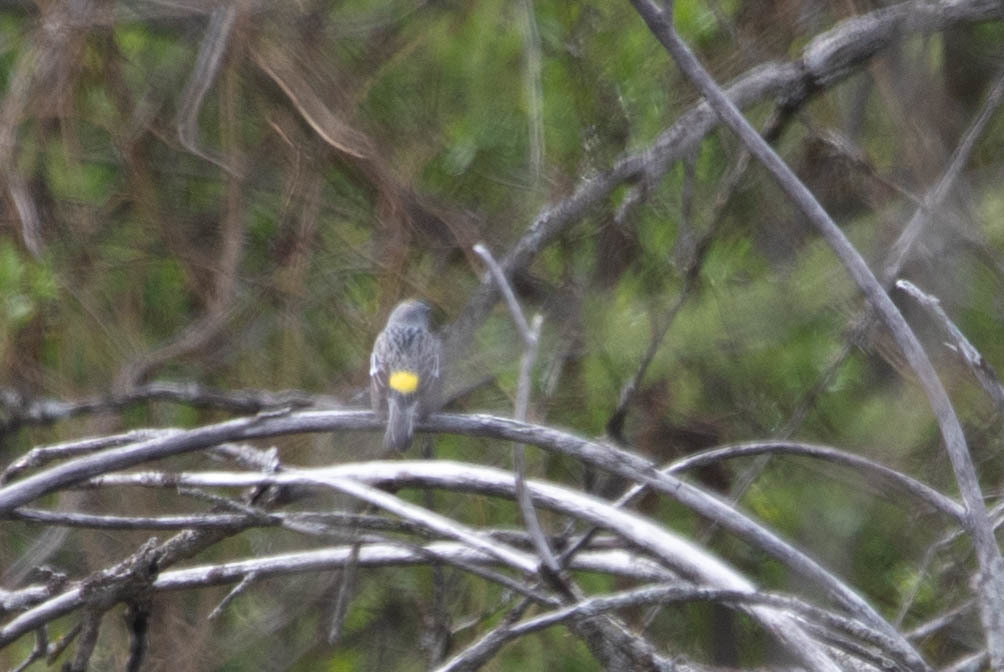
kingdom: Animalia
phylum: Chordata
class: Aves
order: Passeriformes
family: Parulidae
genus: Setophaga
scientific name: Setophaga coronata
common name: Myrtle warbler
